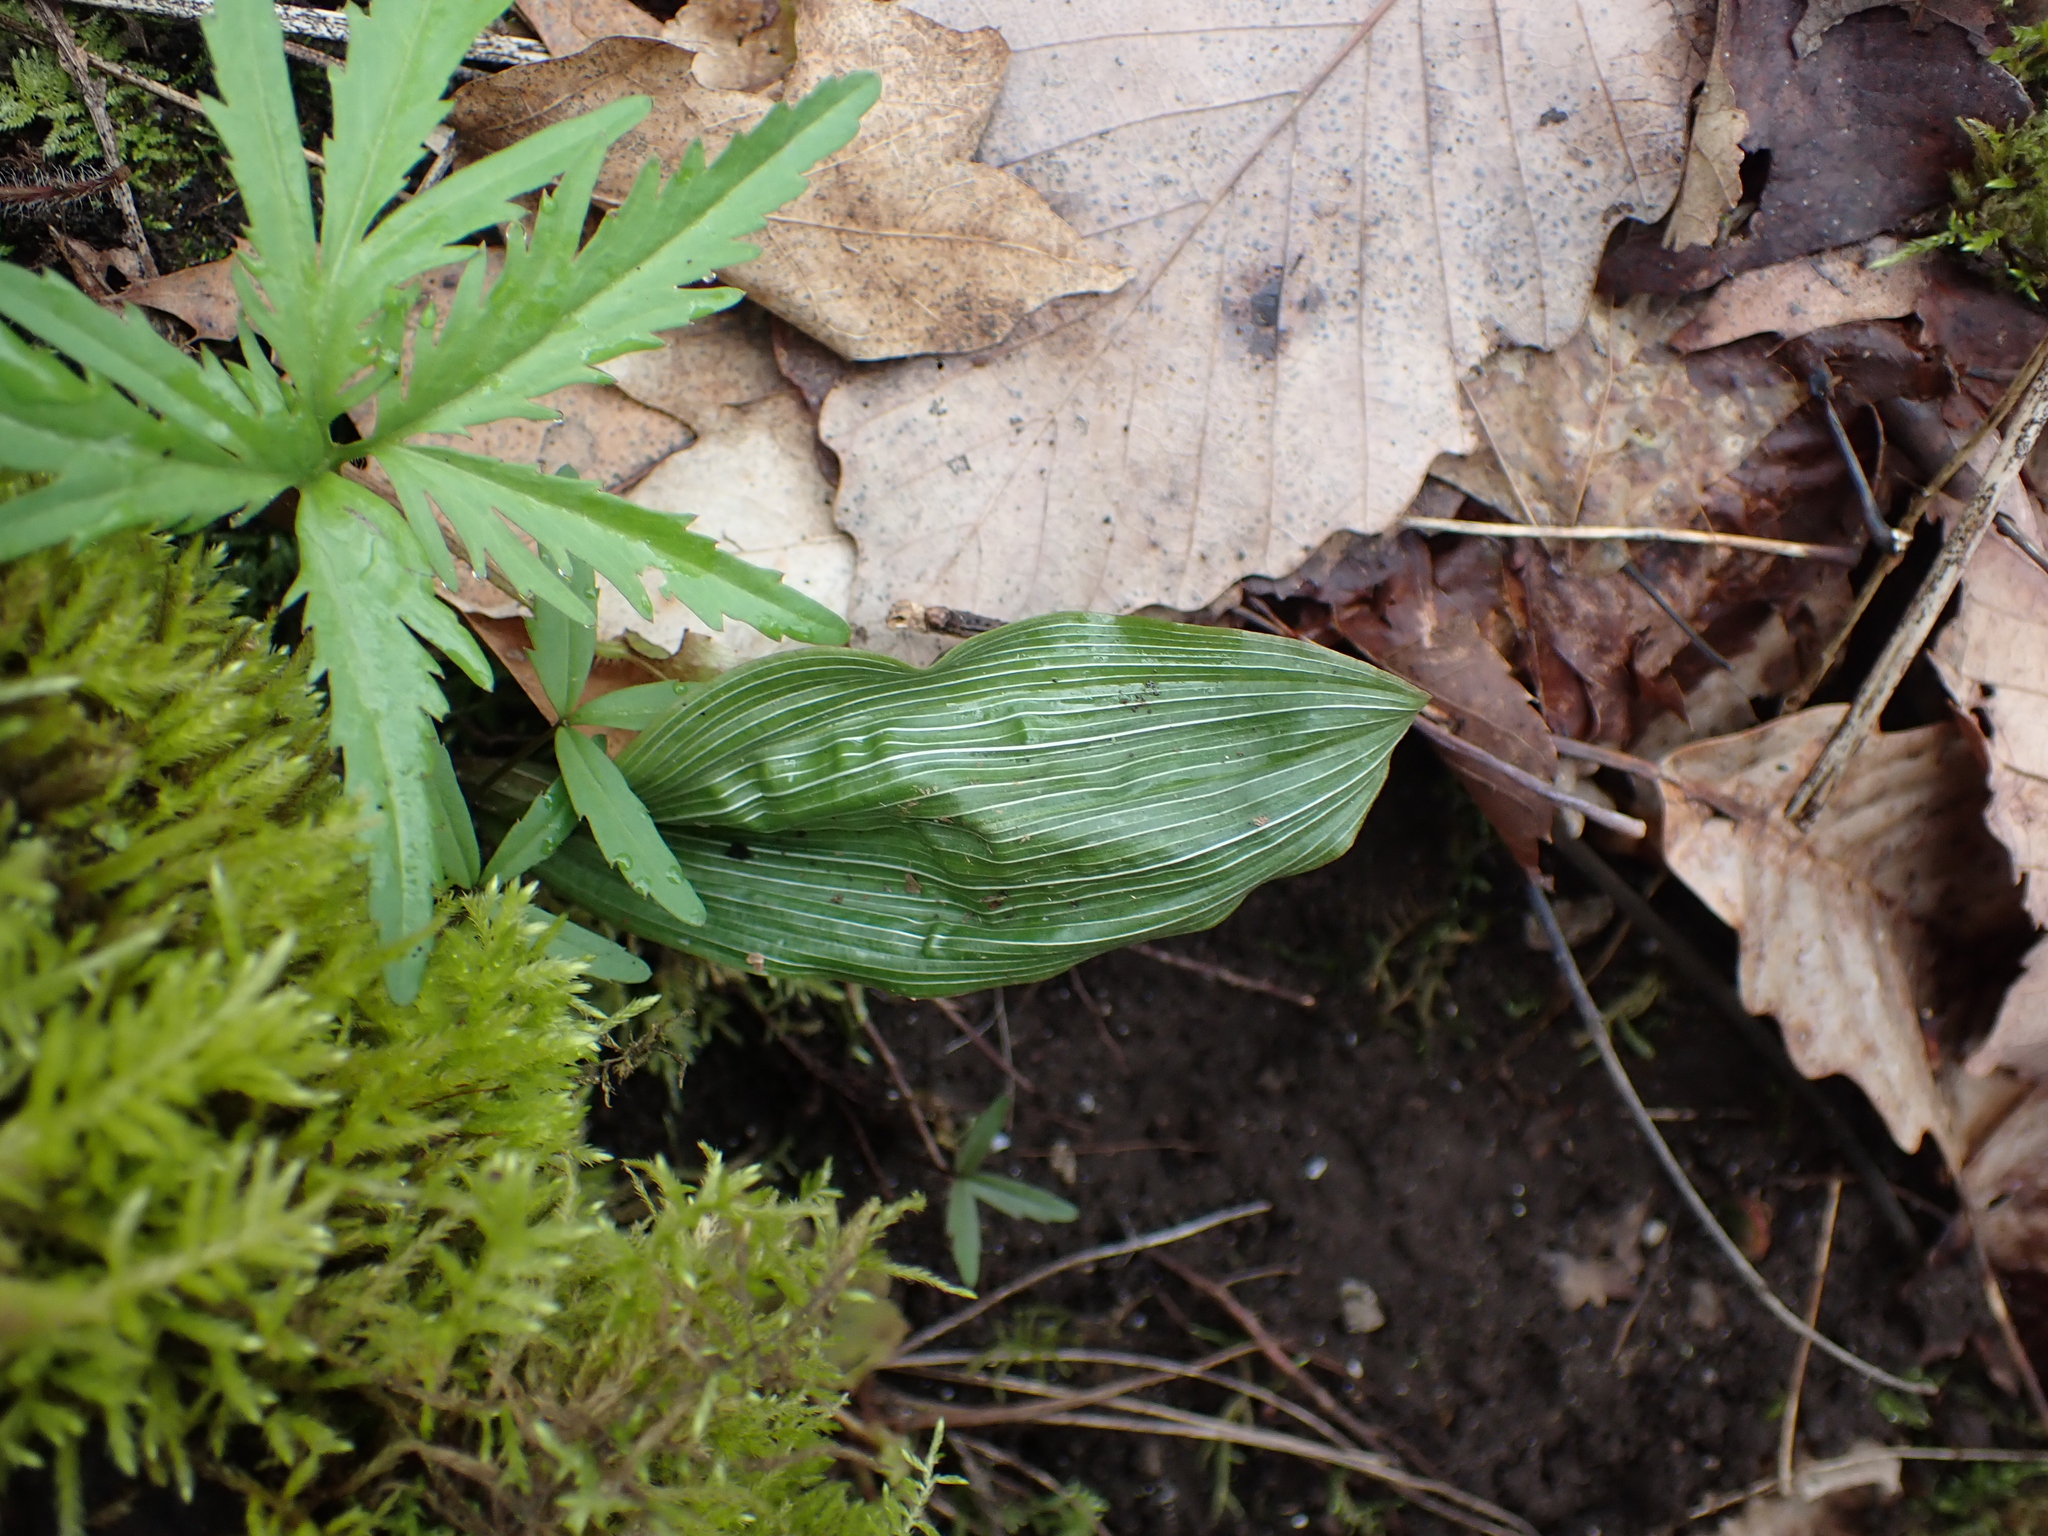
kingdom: Plantae
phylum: Tracheophyta
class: Liliopsida
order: Asparagales
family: Orchidaceae
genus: Aplectrum
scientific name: Aplectrum hyemale
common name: Adam-and-eve
